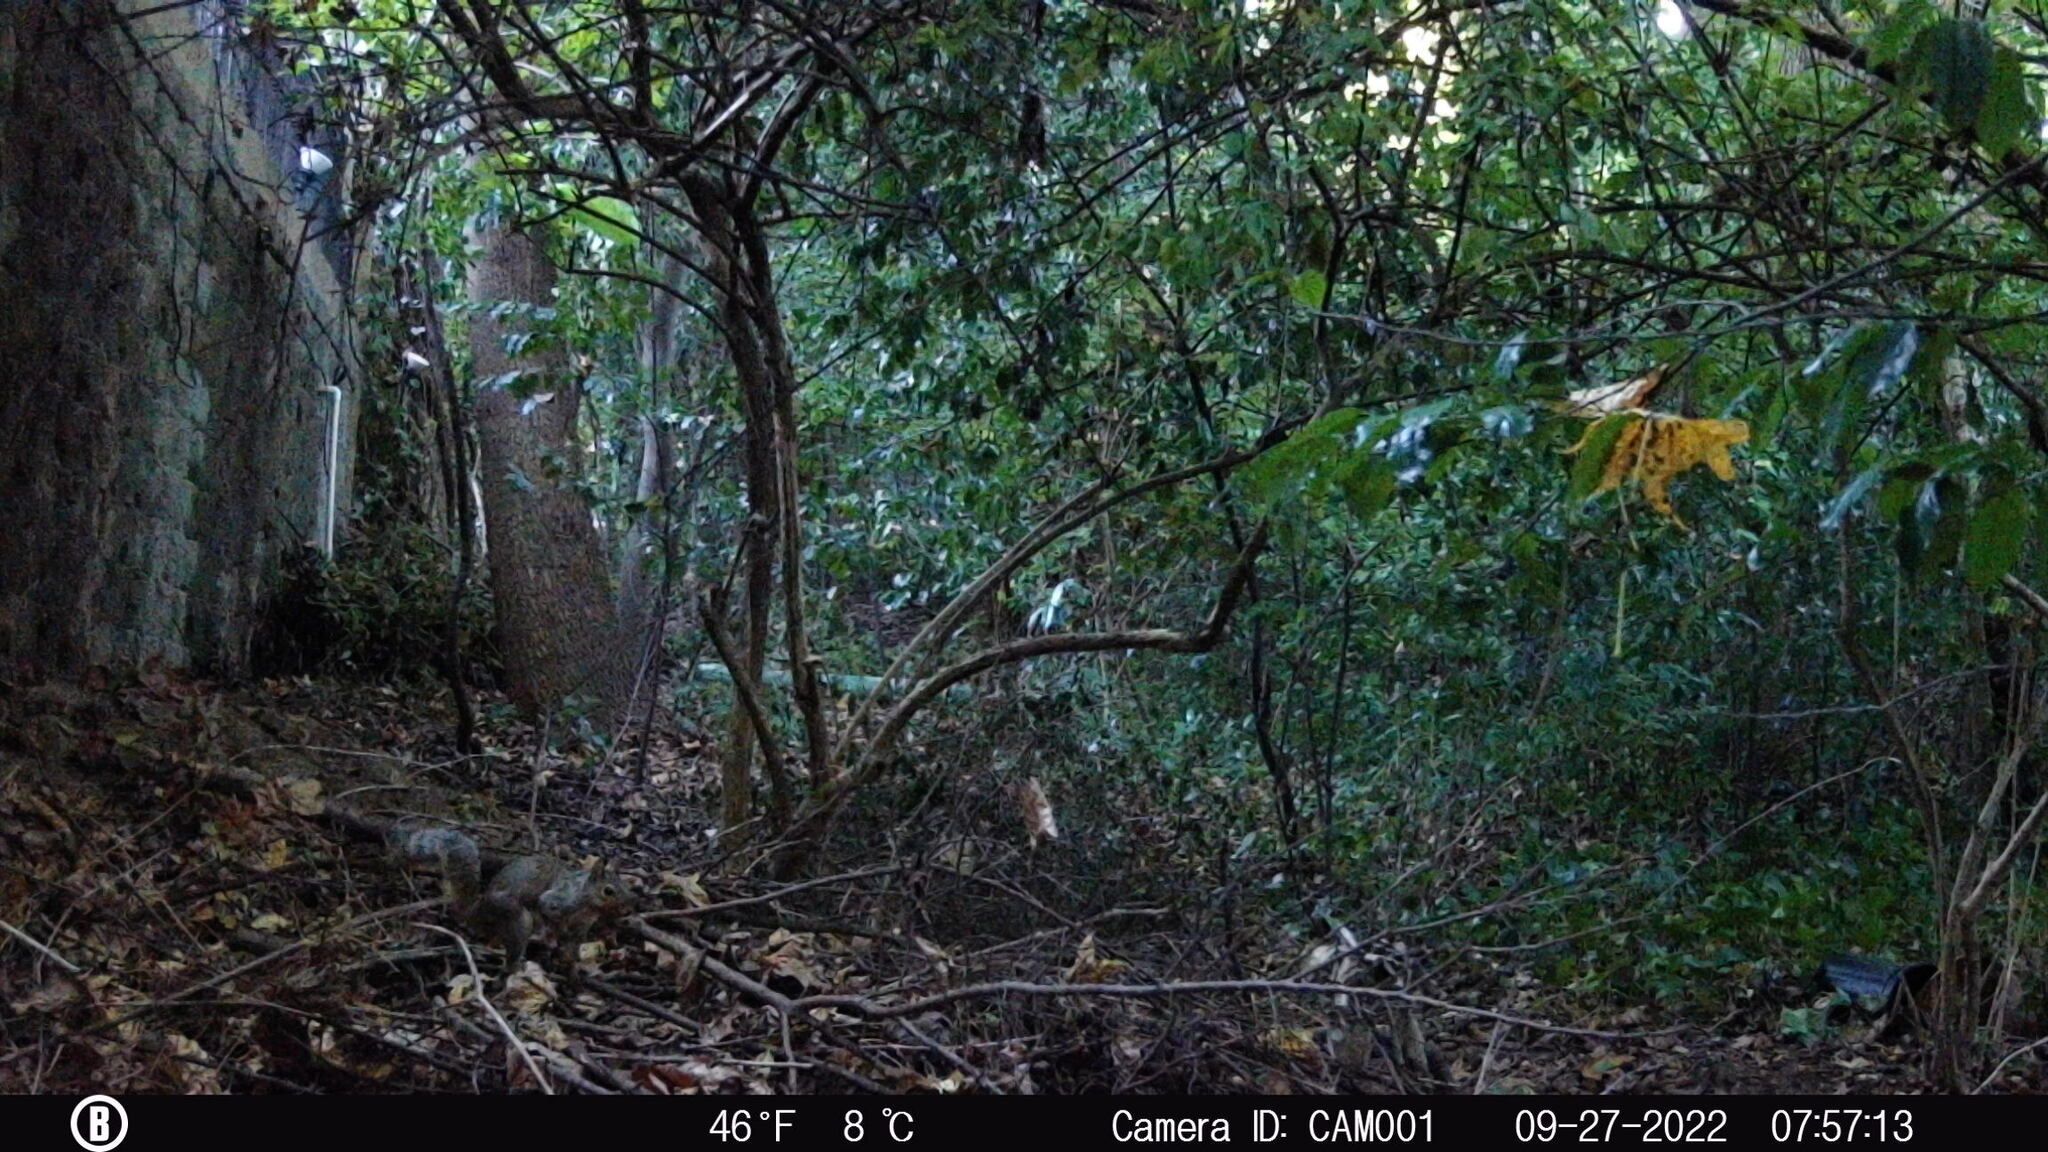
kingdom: Animalia
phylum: Chordata
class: Mammalia
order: Rodentia
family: Sciuridae
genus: Sciurus
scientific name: Sciurus carolinensis
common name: Eastern gray squirrel
